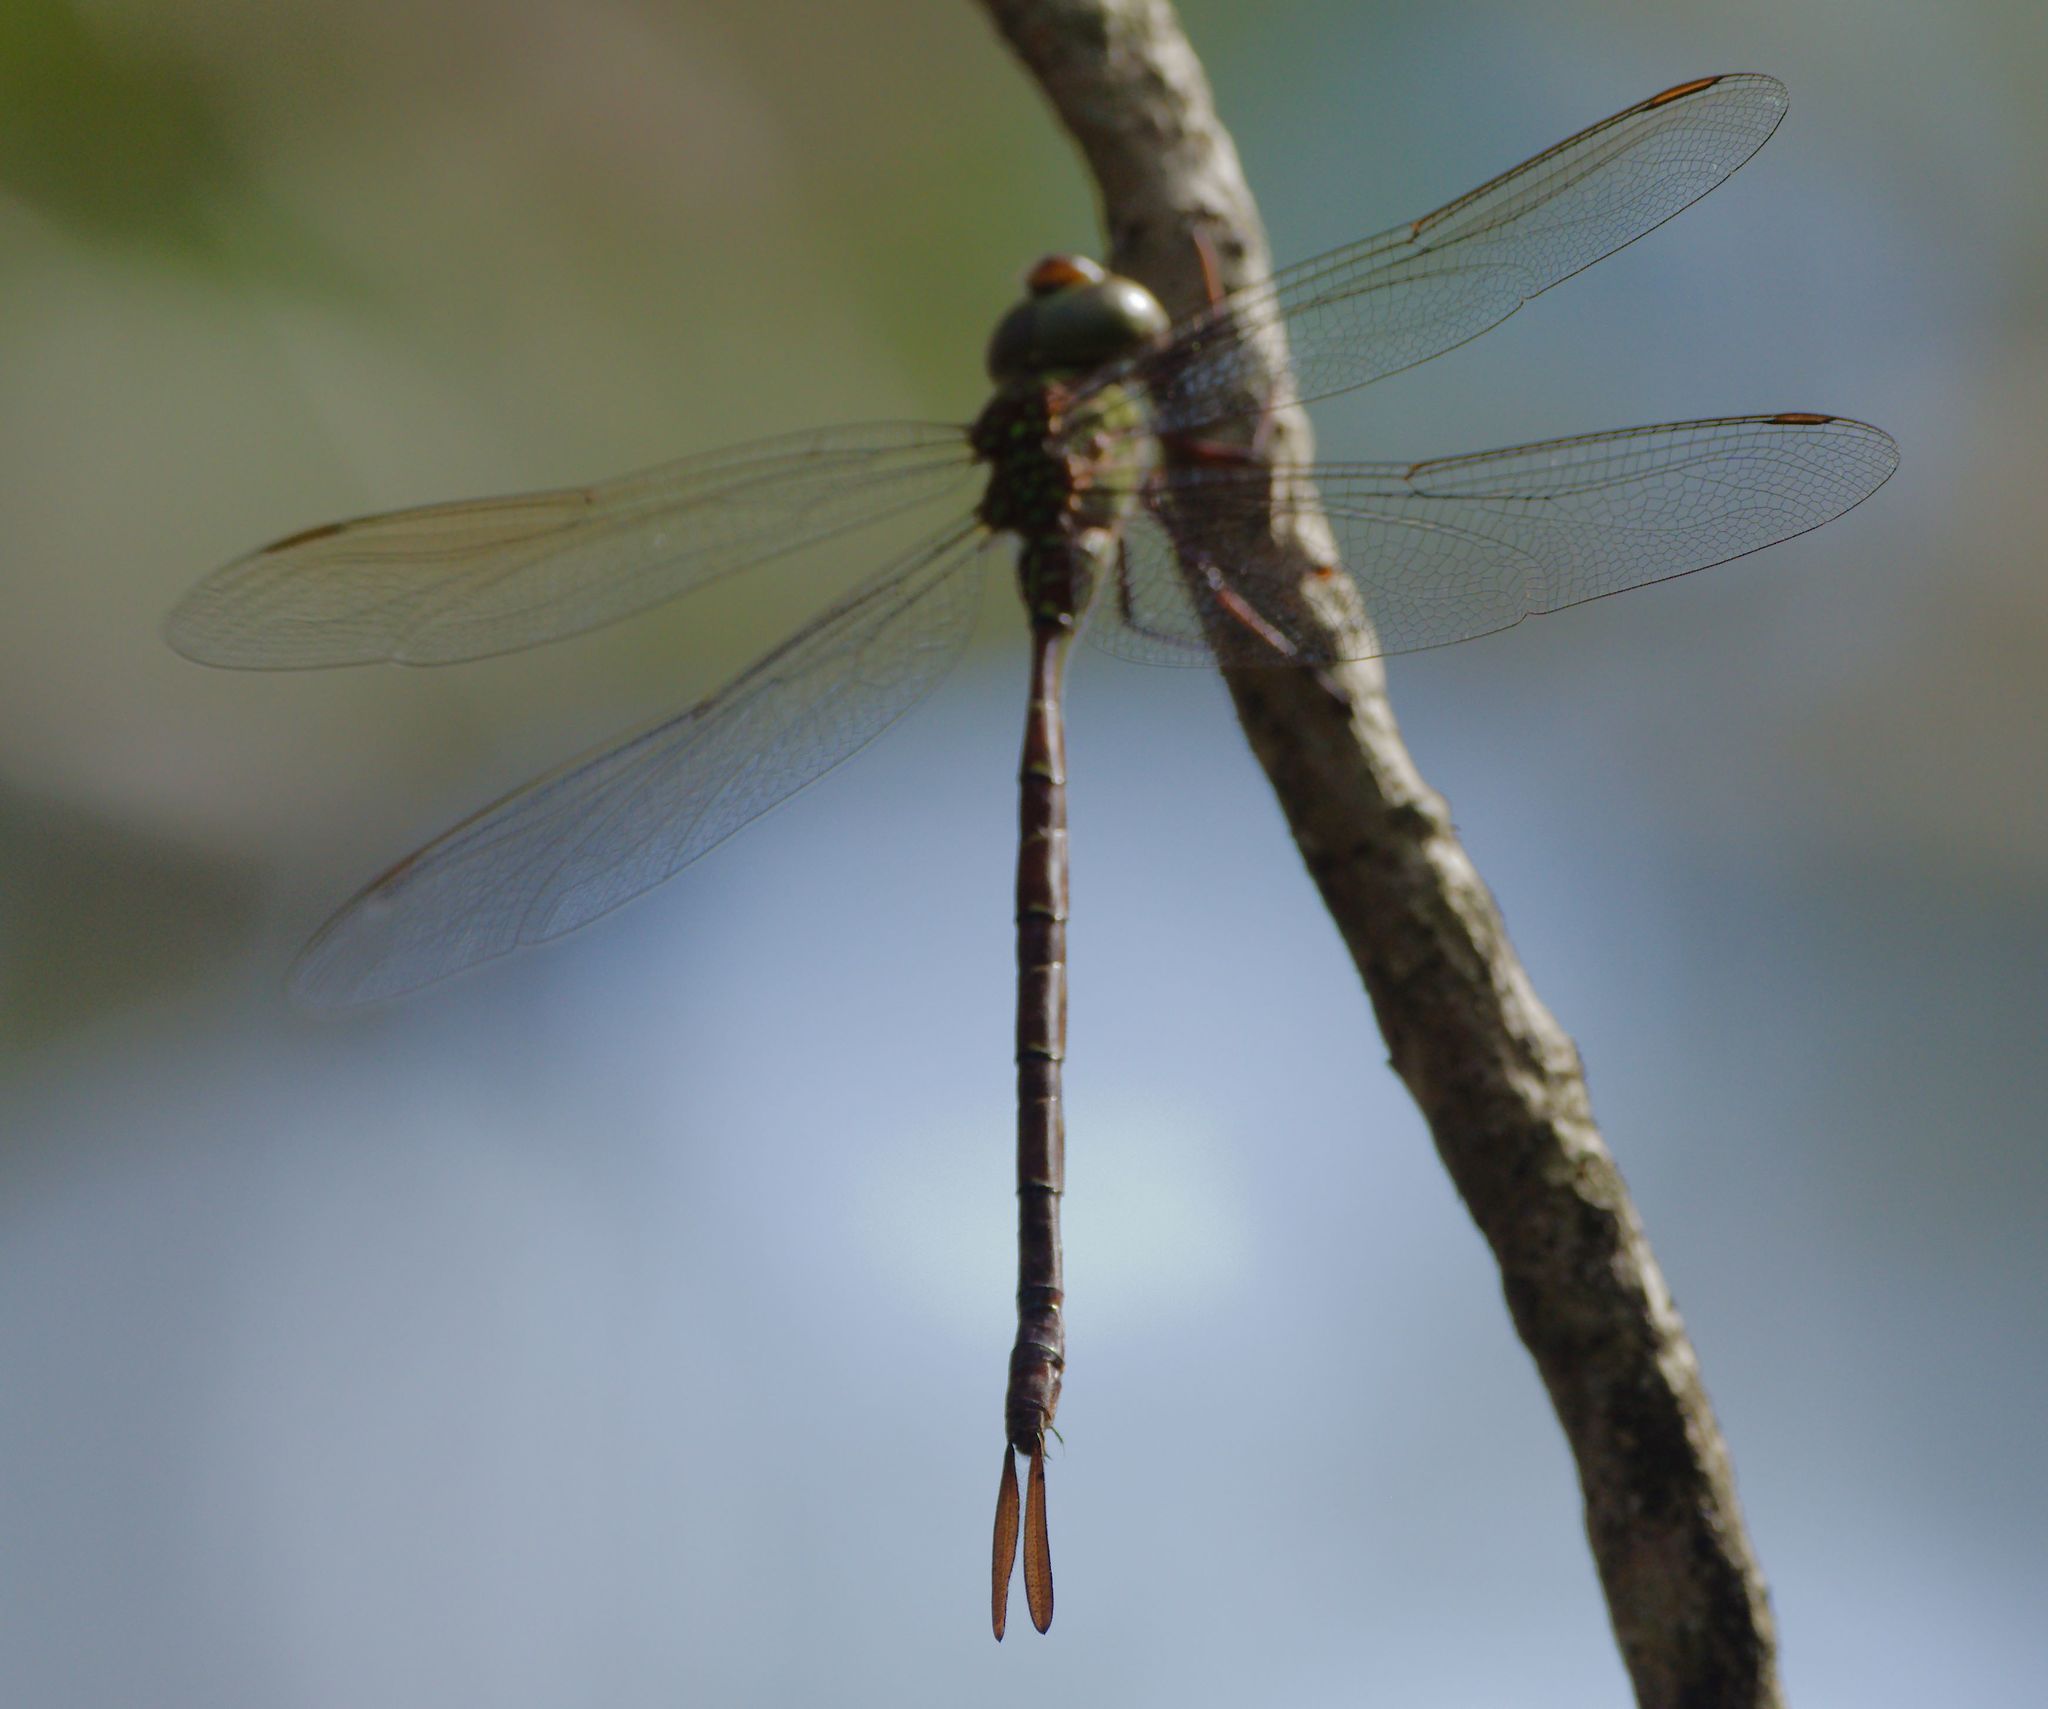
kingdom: Animalia
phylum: Arthropoda
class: Insecta
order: Odonata
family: Aeshnidae
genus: Triacanthagyna
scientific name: Triacanthagyna trifida
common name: Phantom darner
